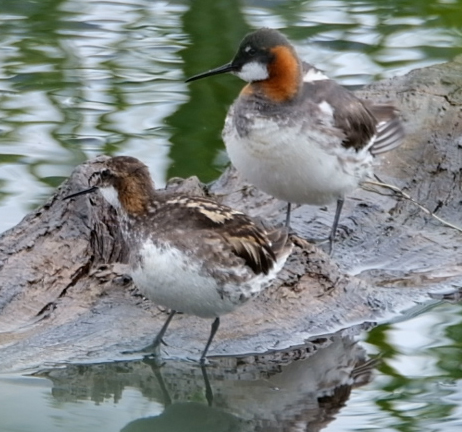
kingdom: Animalia
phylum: Chordata
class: Aves
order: Charadriiformes
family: Scolopacidae
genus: Phalaropus
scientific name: Phalaropus lobatus
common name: Red-necked phalarope
